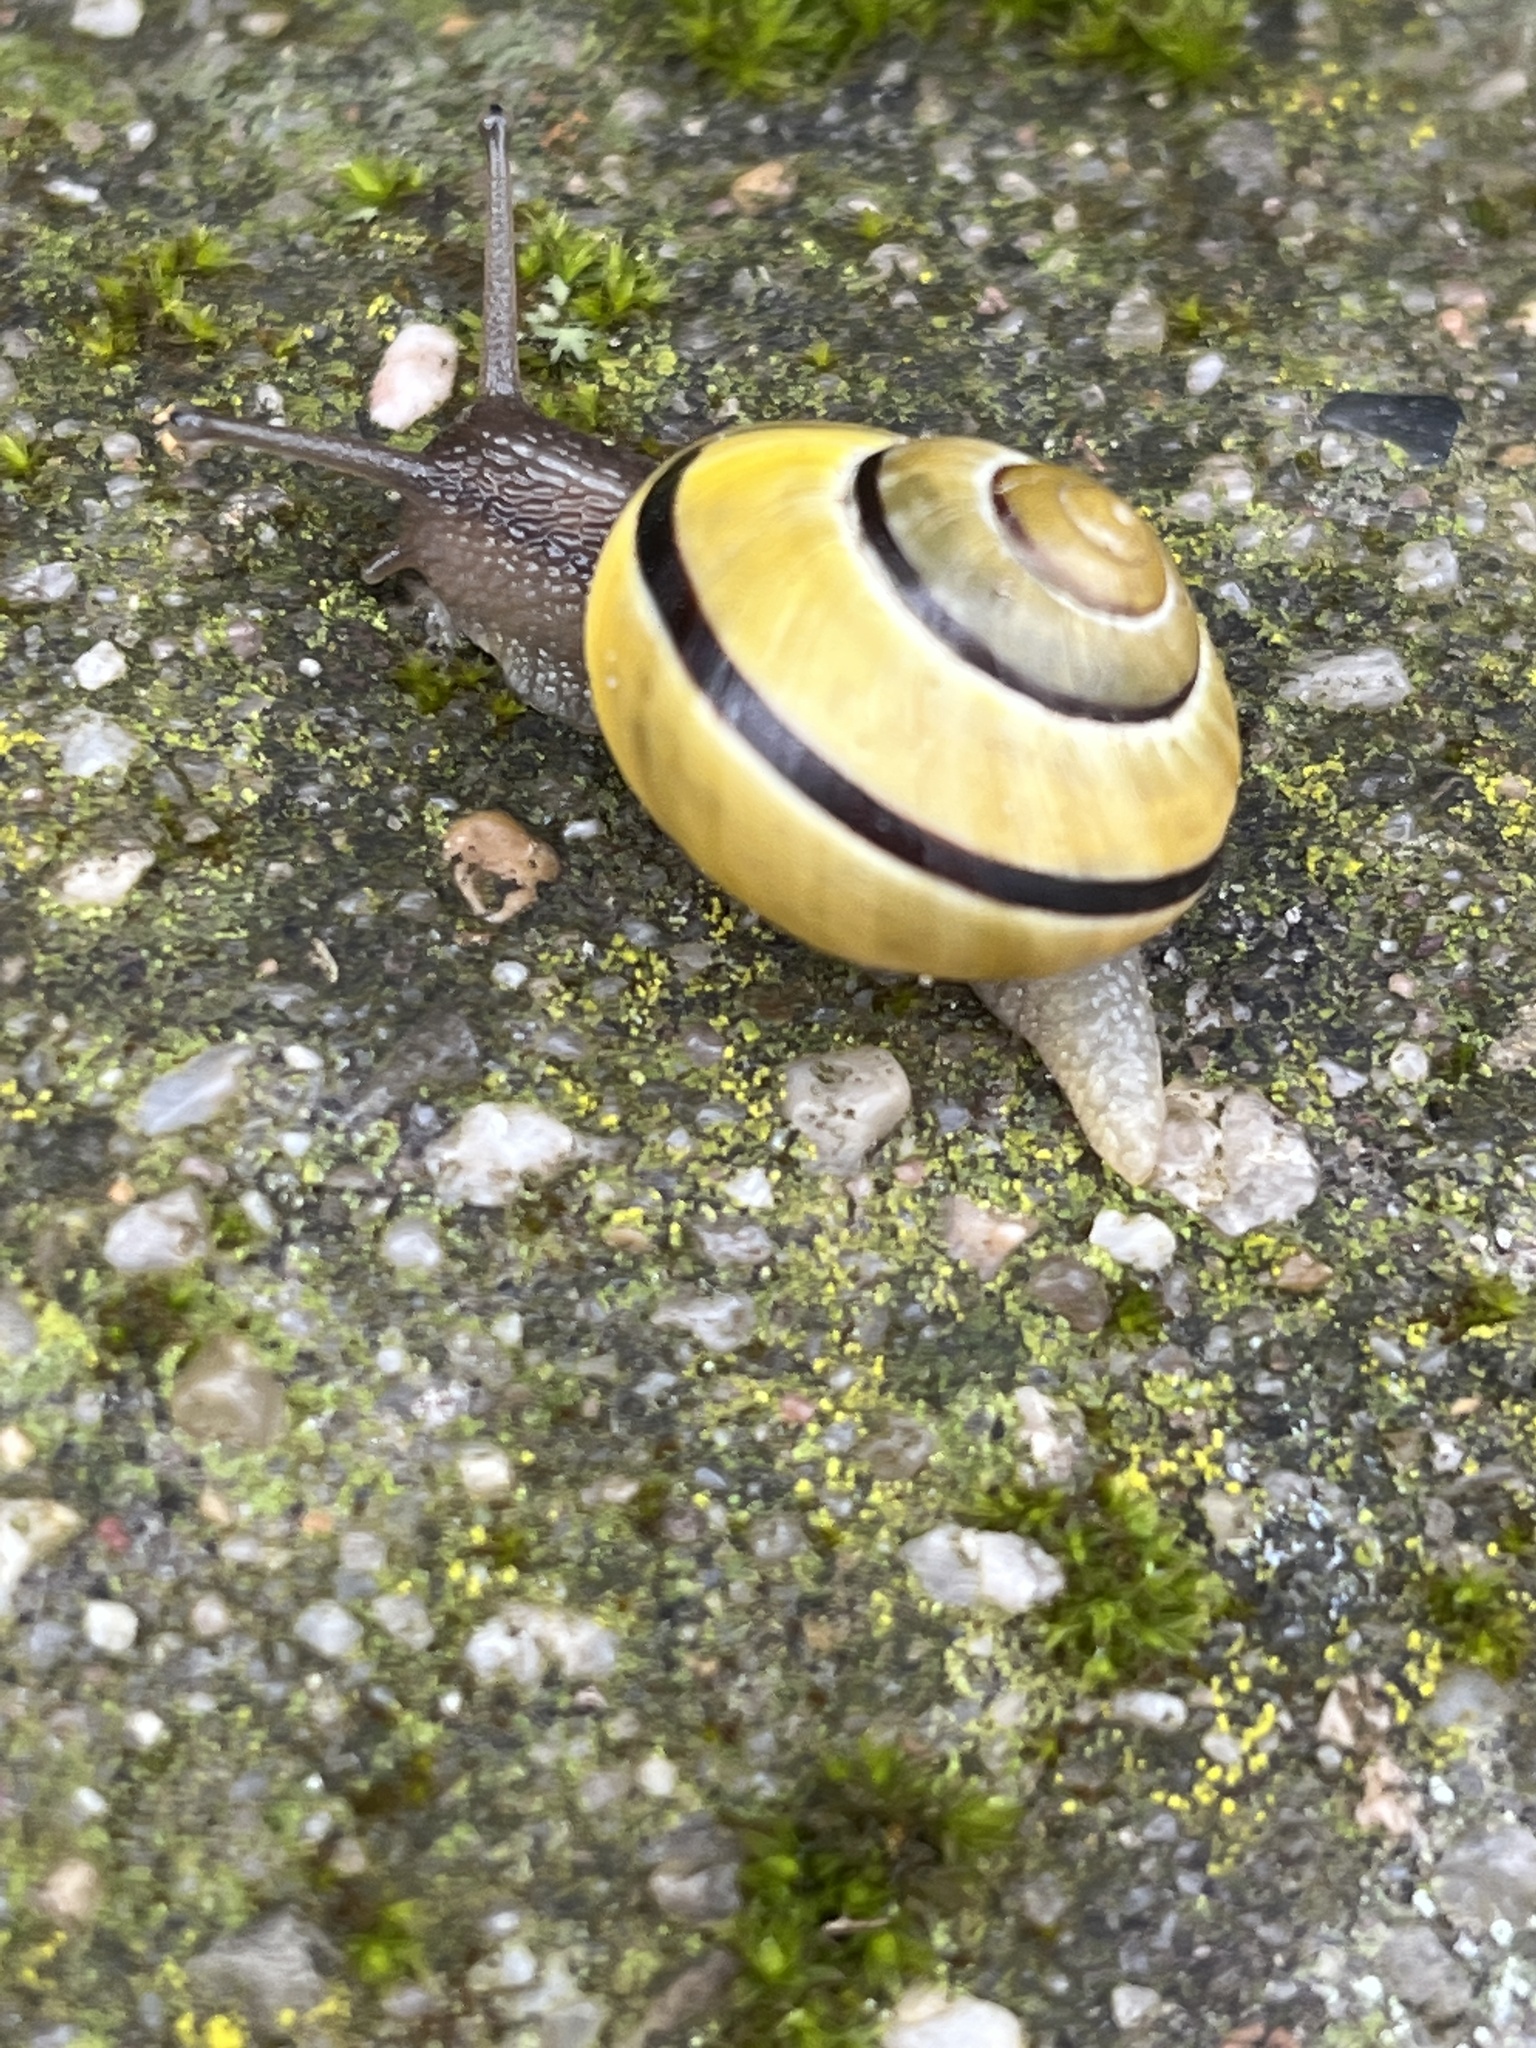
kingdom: Animalia
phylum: Mollusca
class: Gastropoda
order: Stylommatophora
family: Helicidae
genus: Cepaea
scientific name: Cepaea nemoralis
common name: Grovesnail
